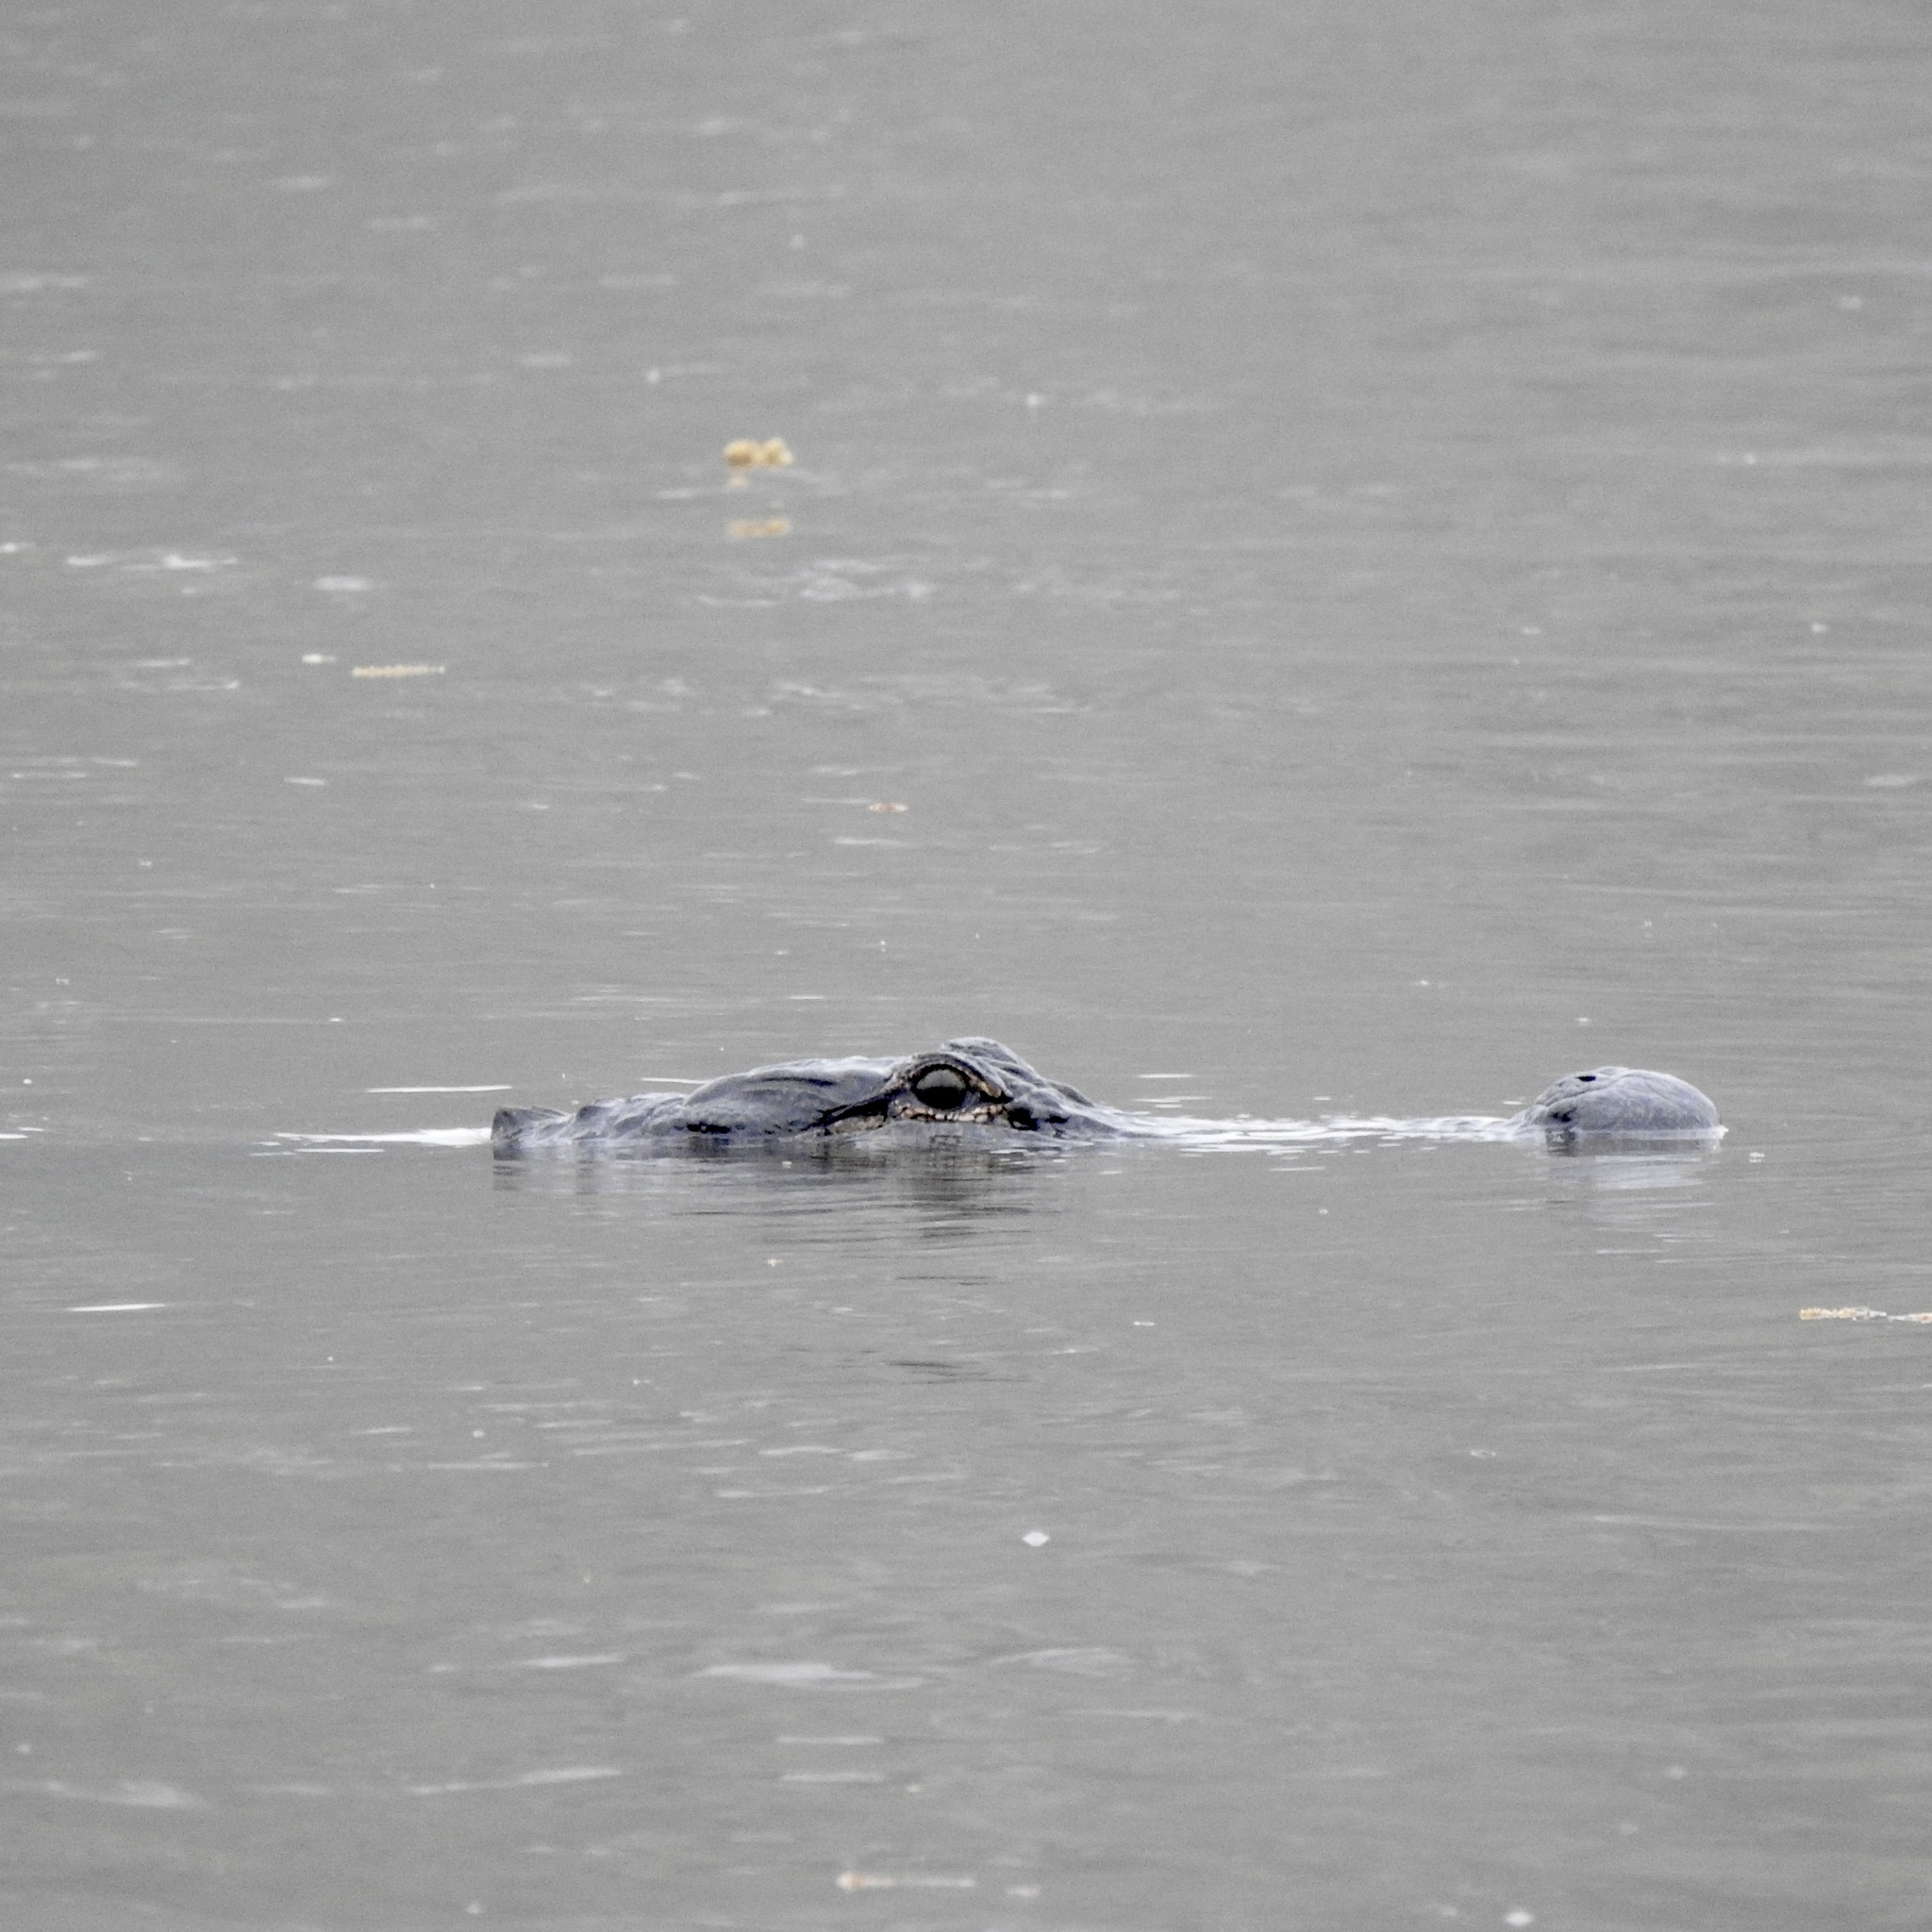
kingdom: Animalia
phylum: Chordata
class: Crocodylia
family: Alligatoridae
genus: Alligator
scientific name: Alligator mississippiensis
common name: American alligator
